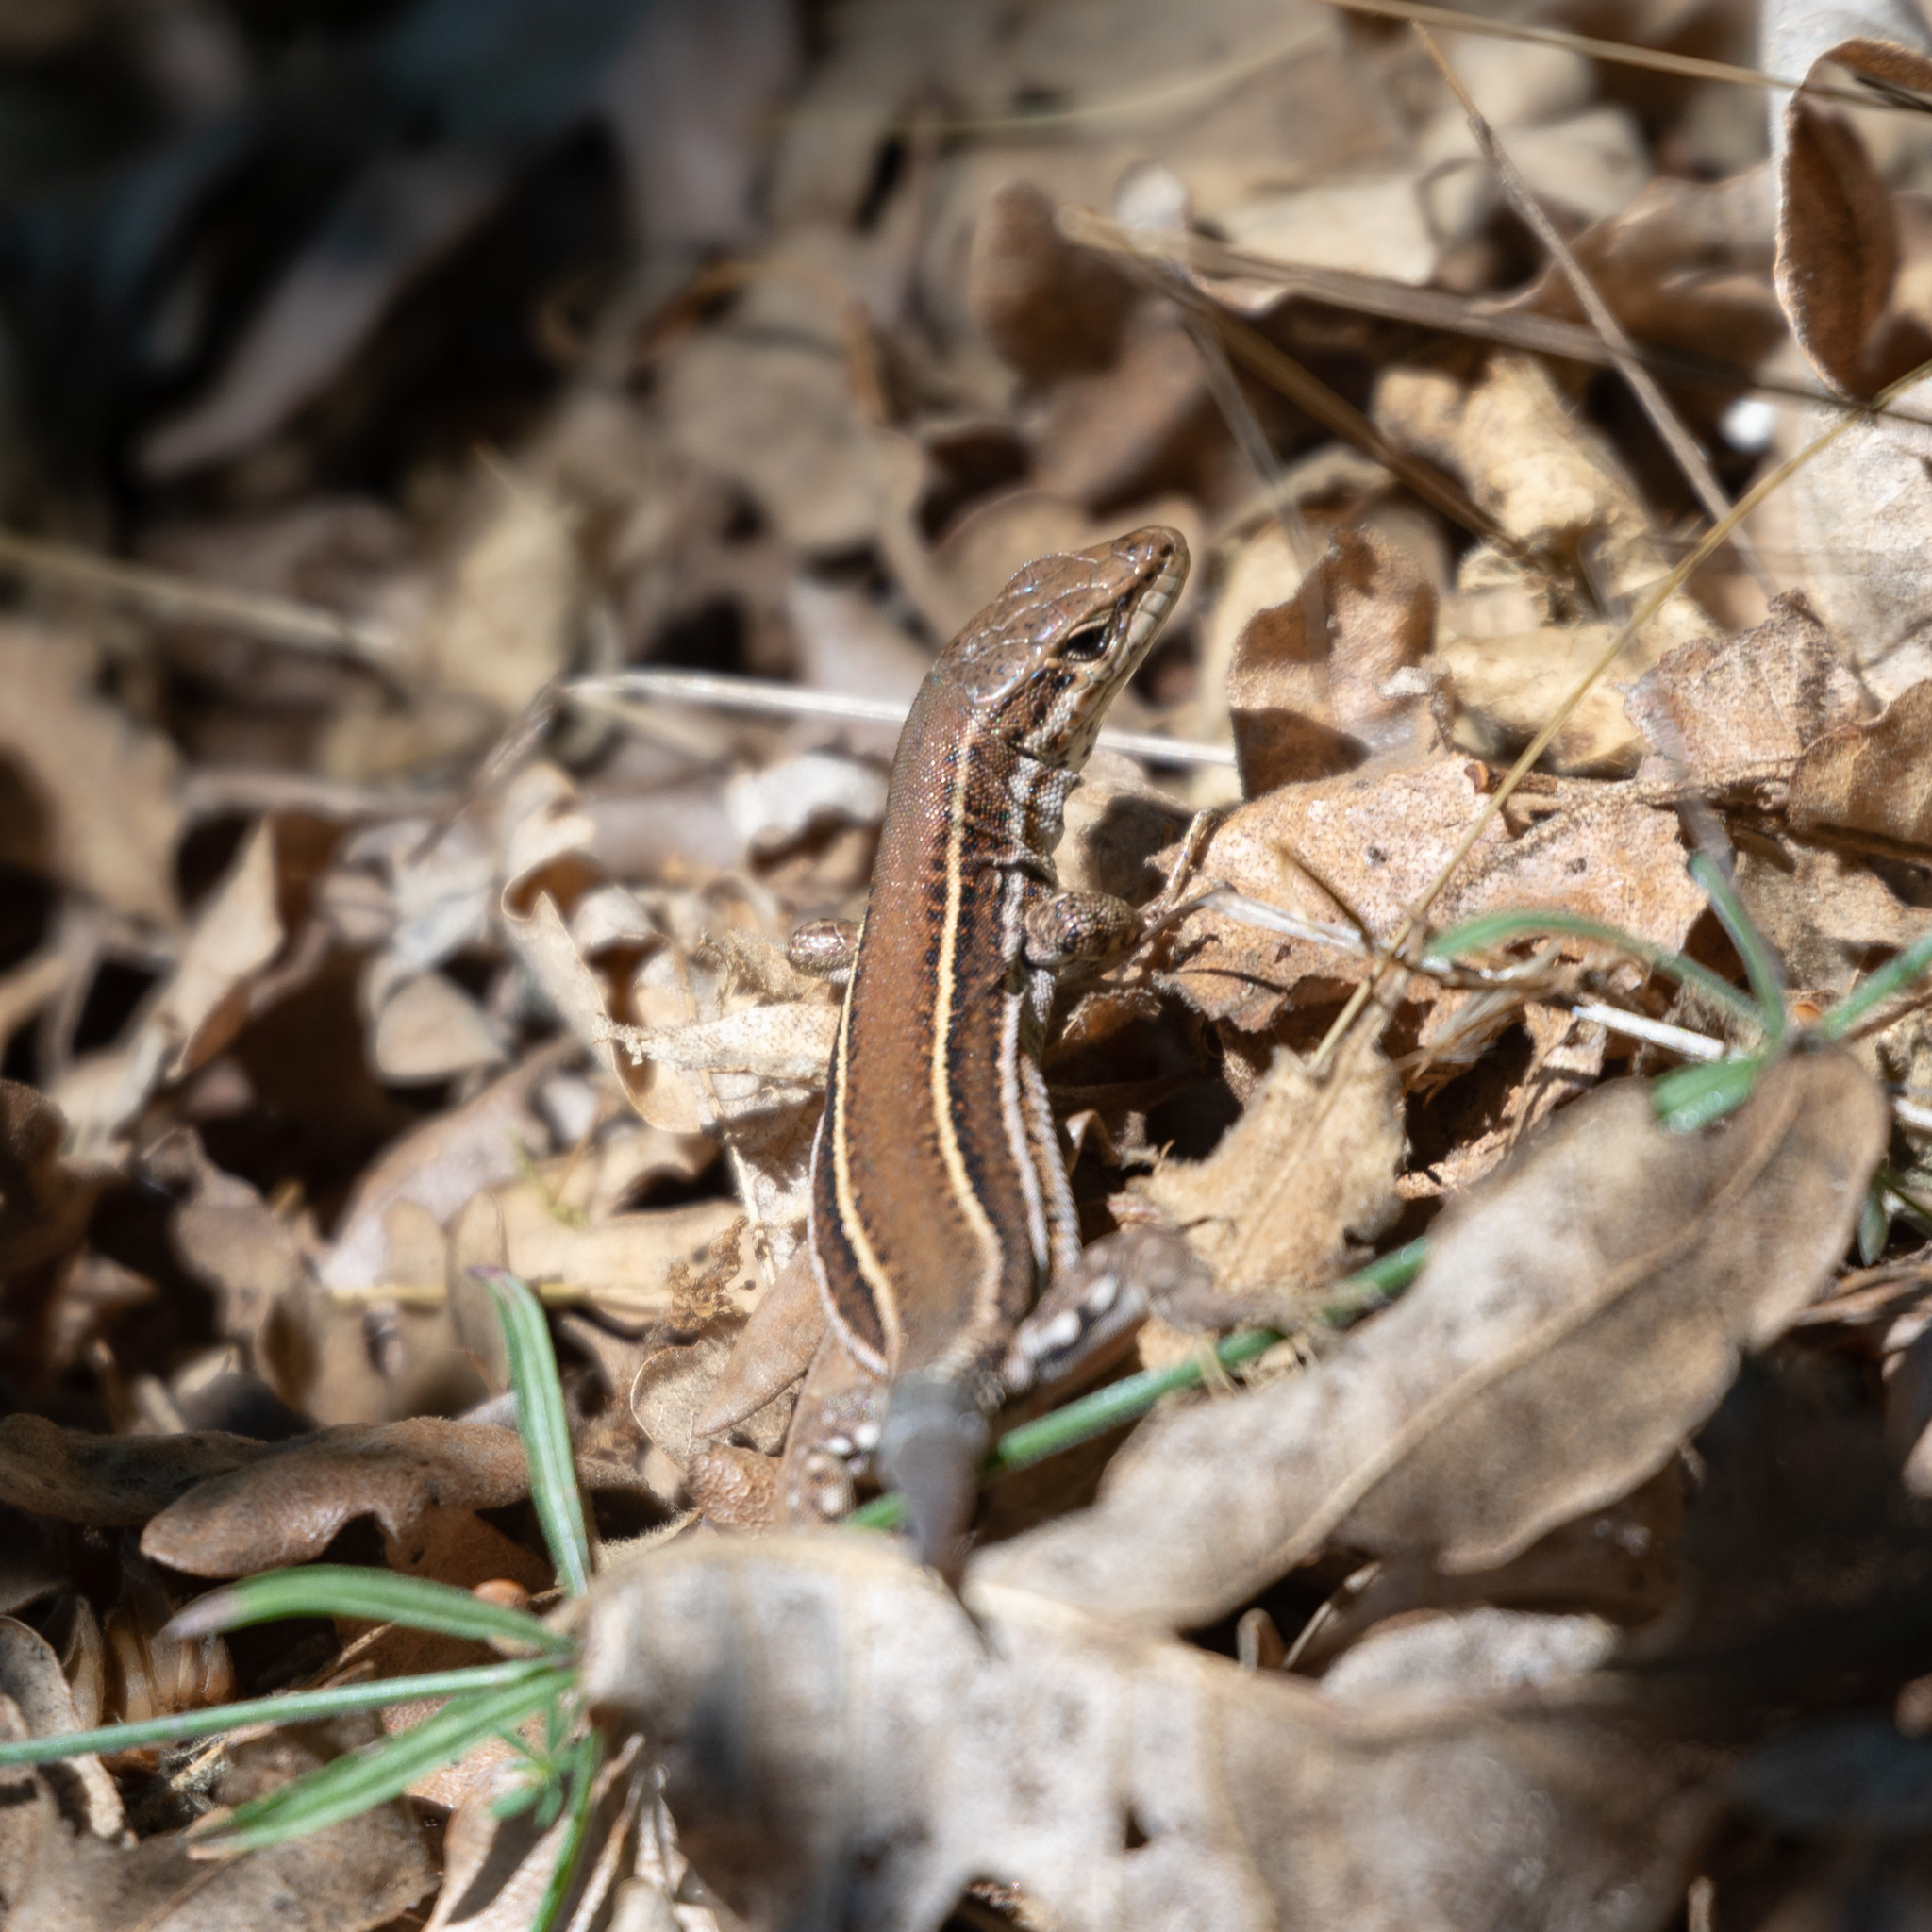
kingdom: Animalia
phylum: Chordata
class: Squamata
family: Lacertidae
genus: Podarcis
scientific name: Podarcis bocagei
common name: Bocage's wall lizard
